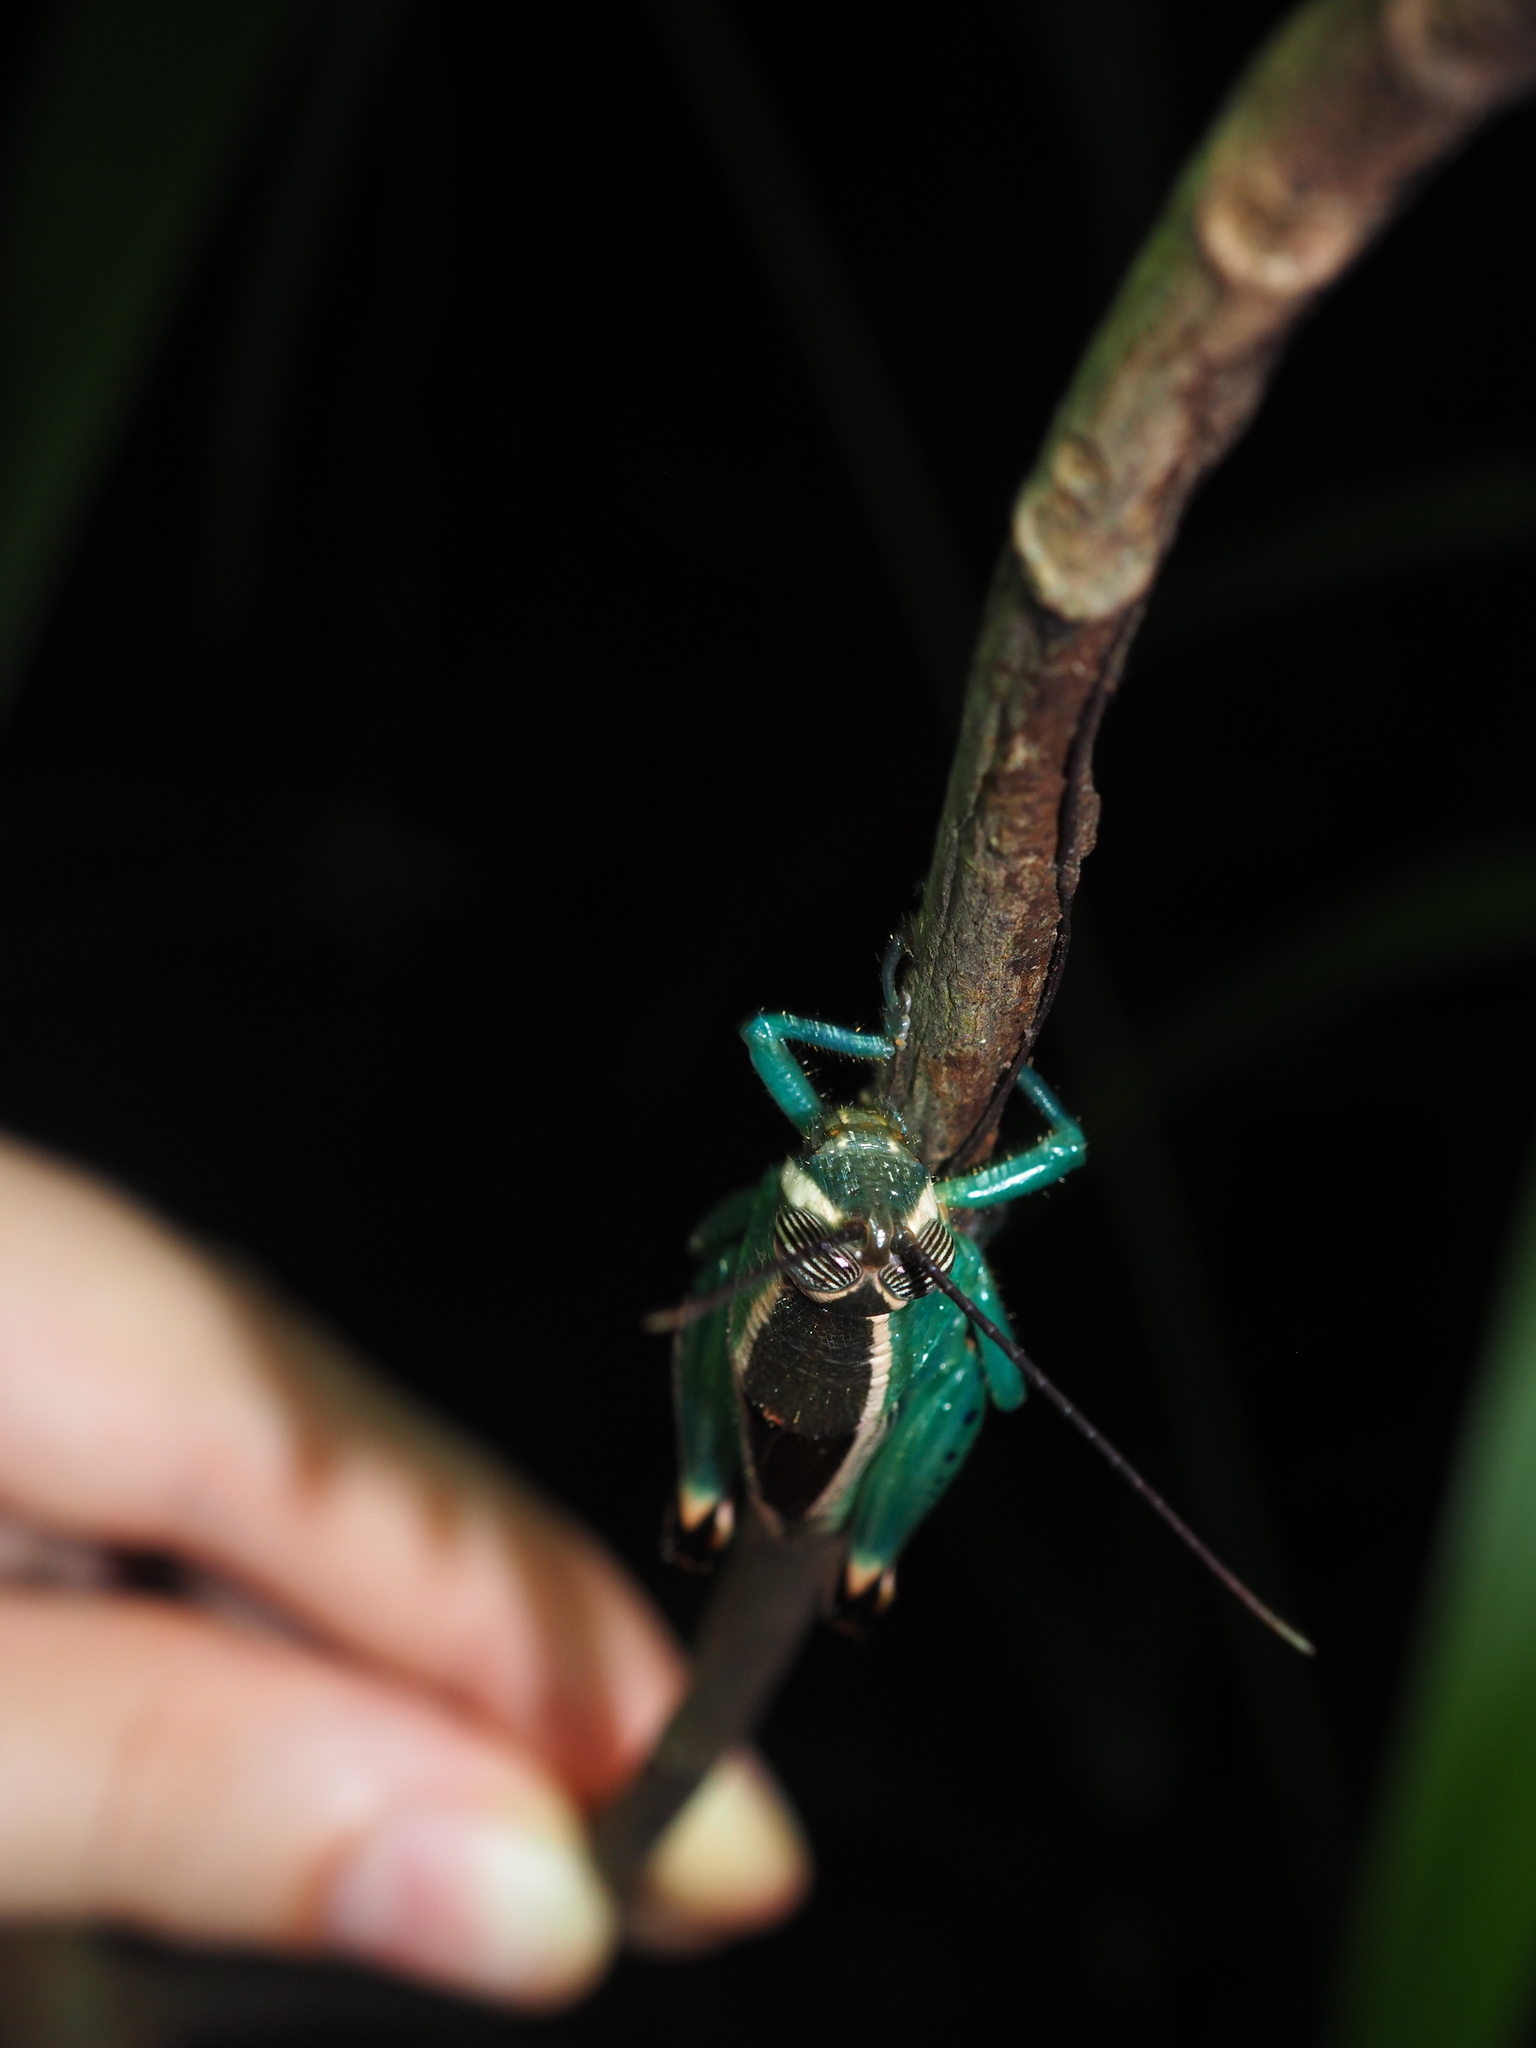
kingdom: Animalia
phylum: Arthropoda
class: Insecta
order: Orthoptera
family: Romaleidae
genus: Caenolampis
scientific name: Caenolampis robertsi
